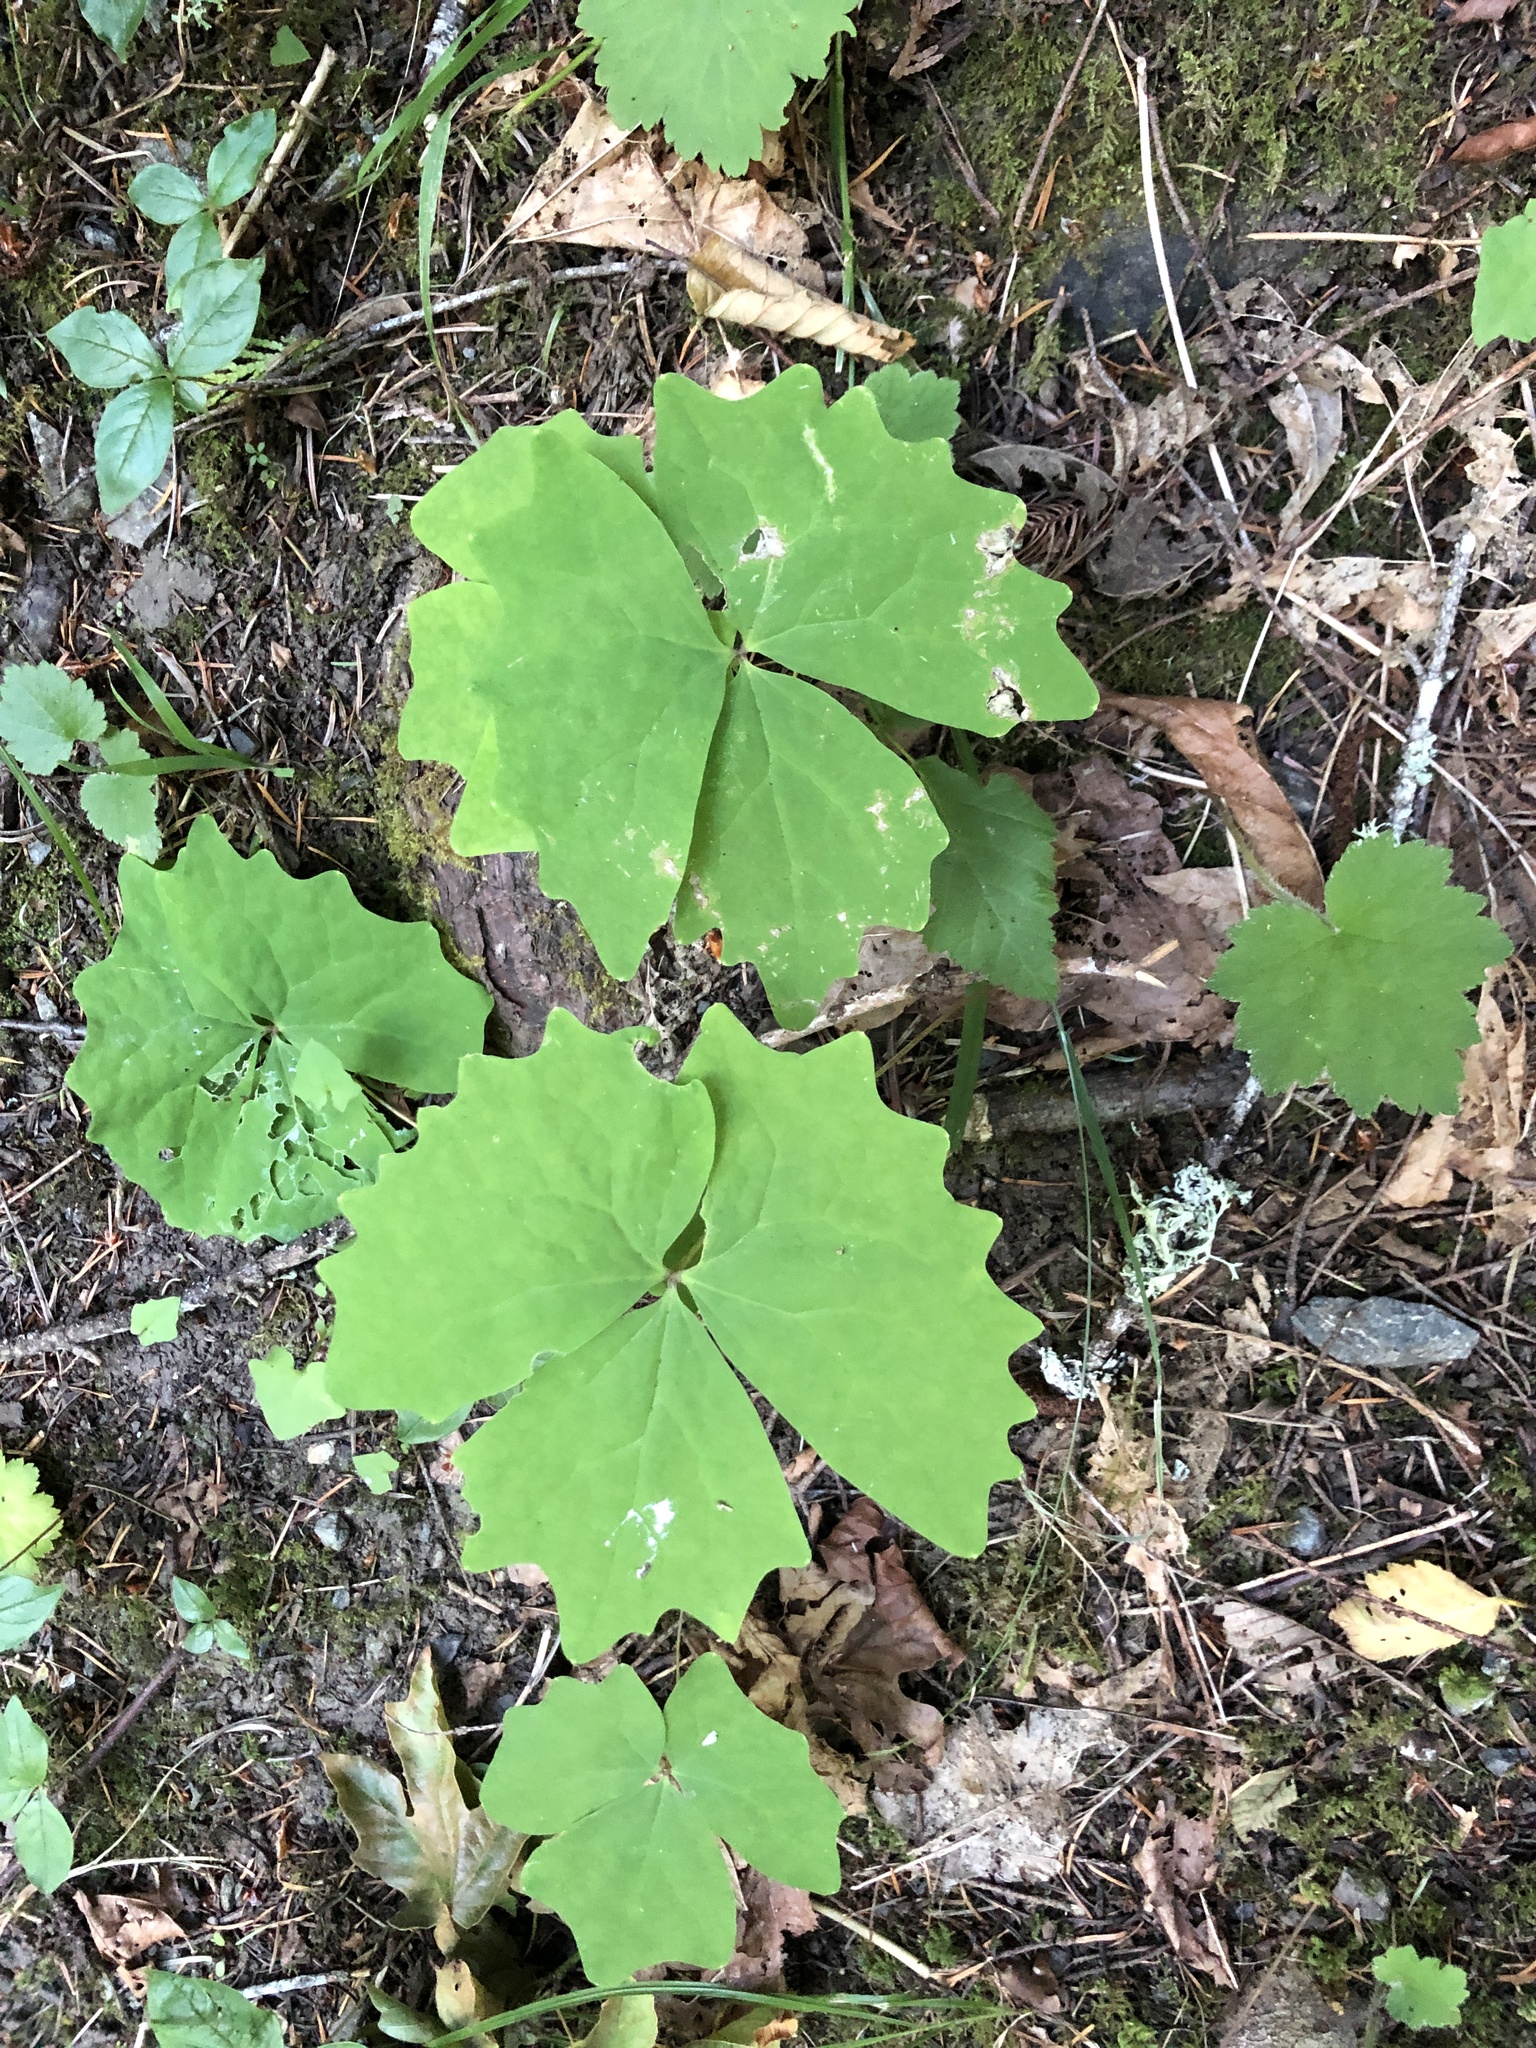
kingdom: Plantae
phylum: Tracheophyta
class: Magnoliopsida
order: Ranunculales
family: Berberidaceae
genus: Achlys
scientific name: Achlys triphylla
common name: Vanilla-leaf
